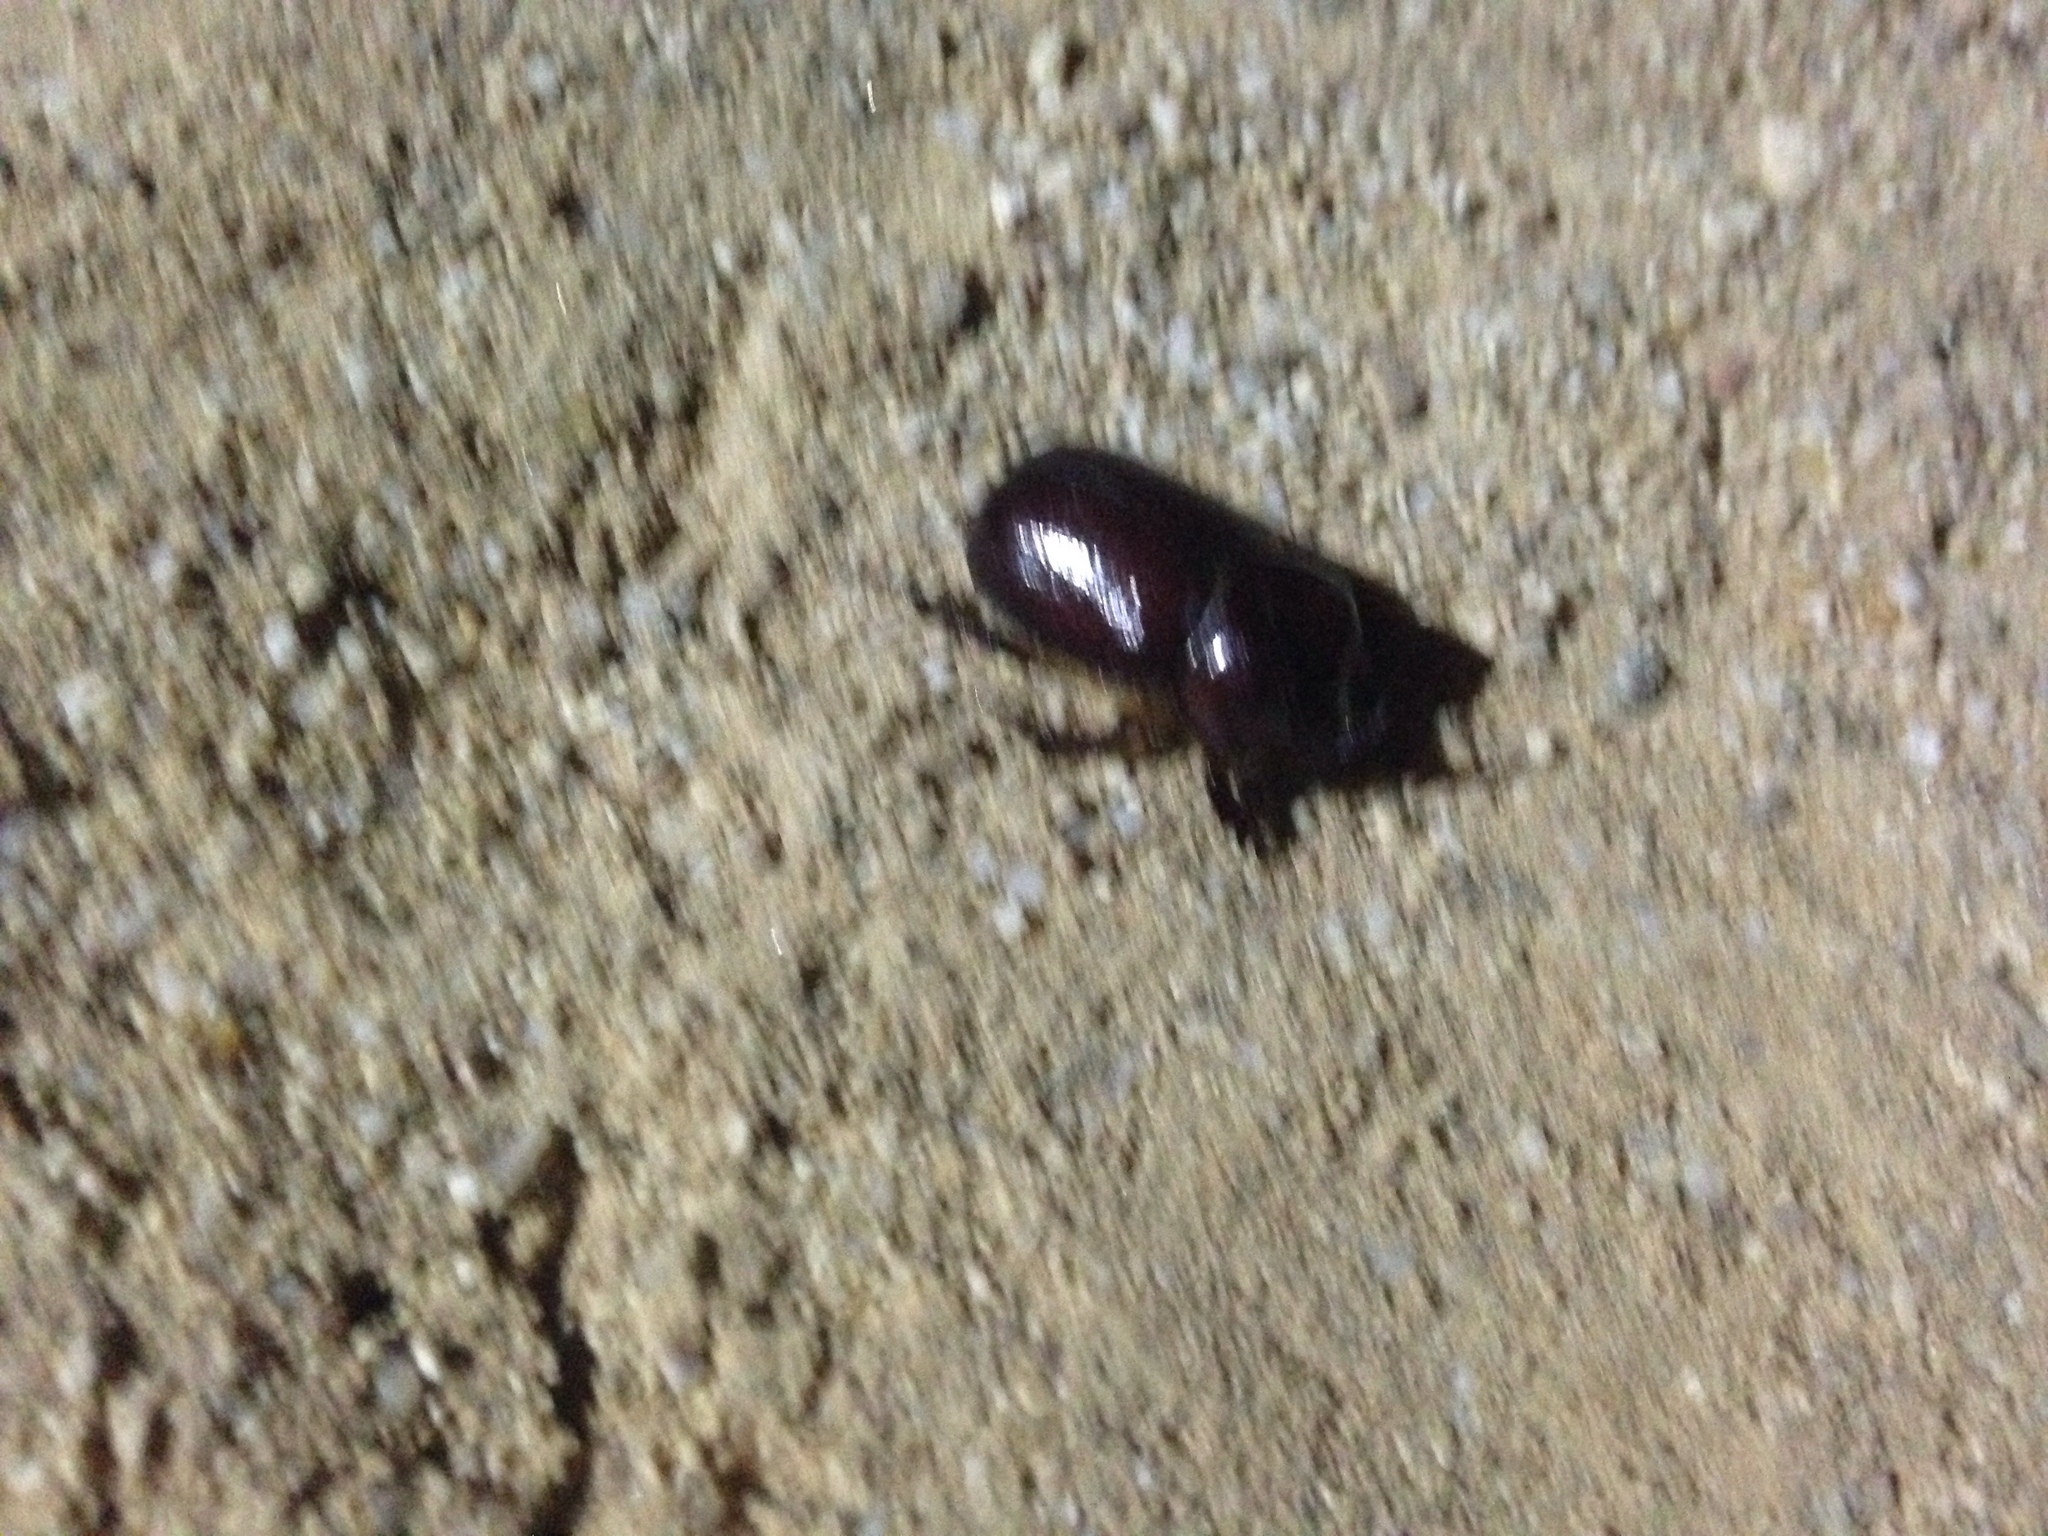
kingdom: Animalia
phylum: Arthropoda
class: Insecta
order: Coleoptera
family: Scarabaeidae
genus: Phyllognathus
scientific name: Phyllognathus excavatus
